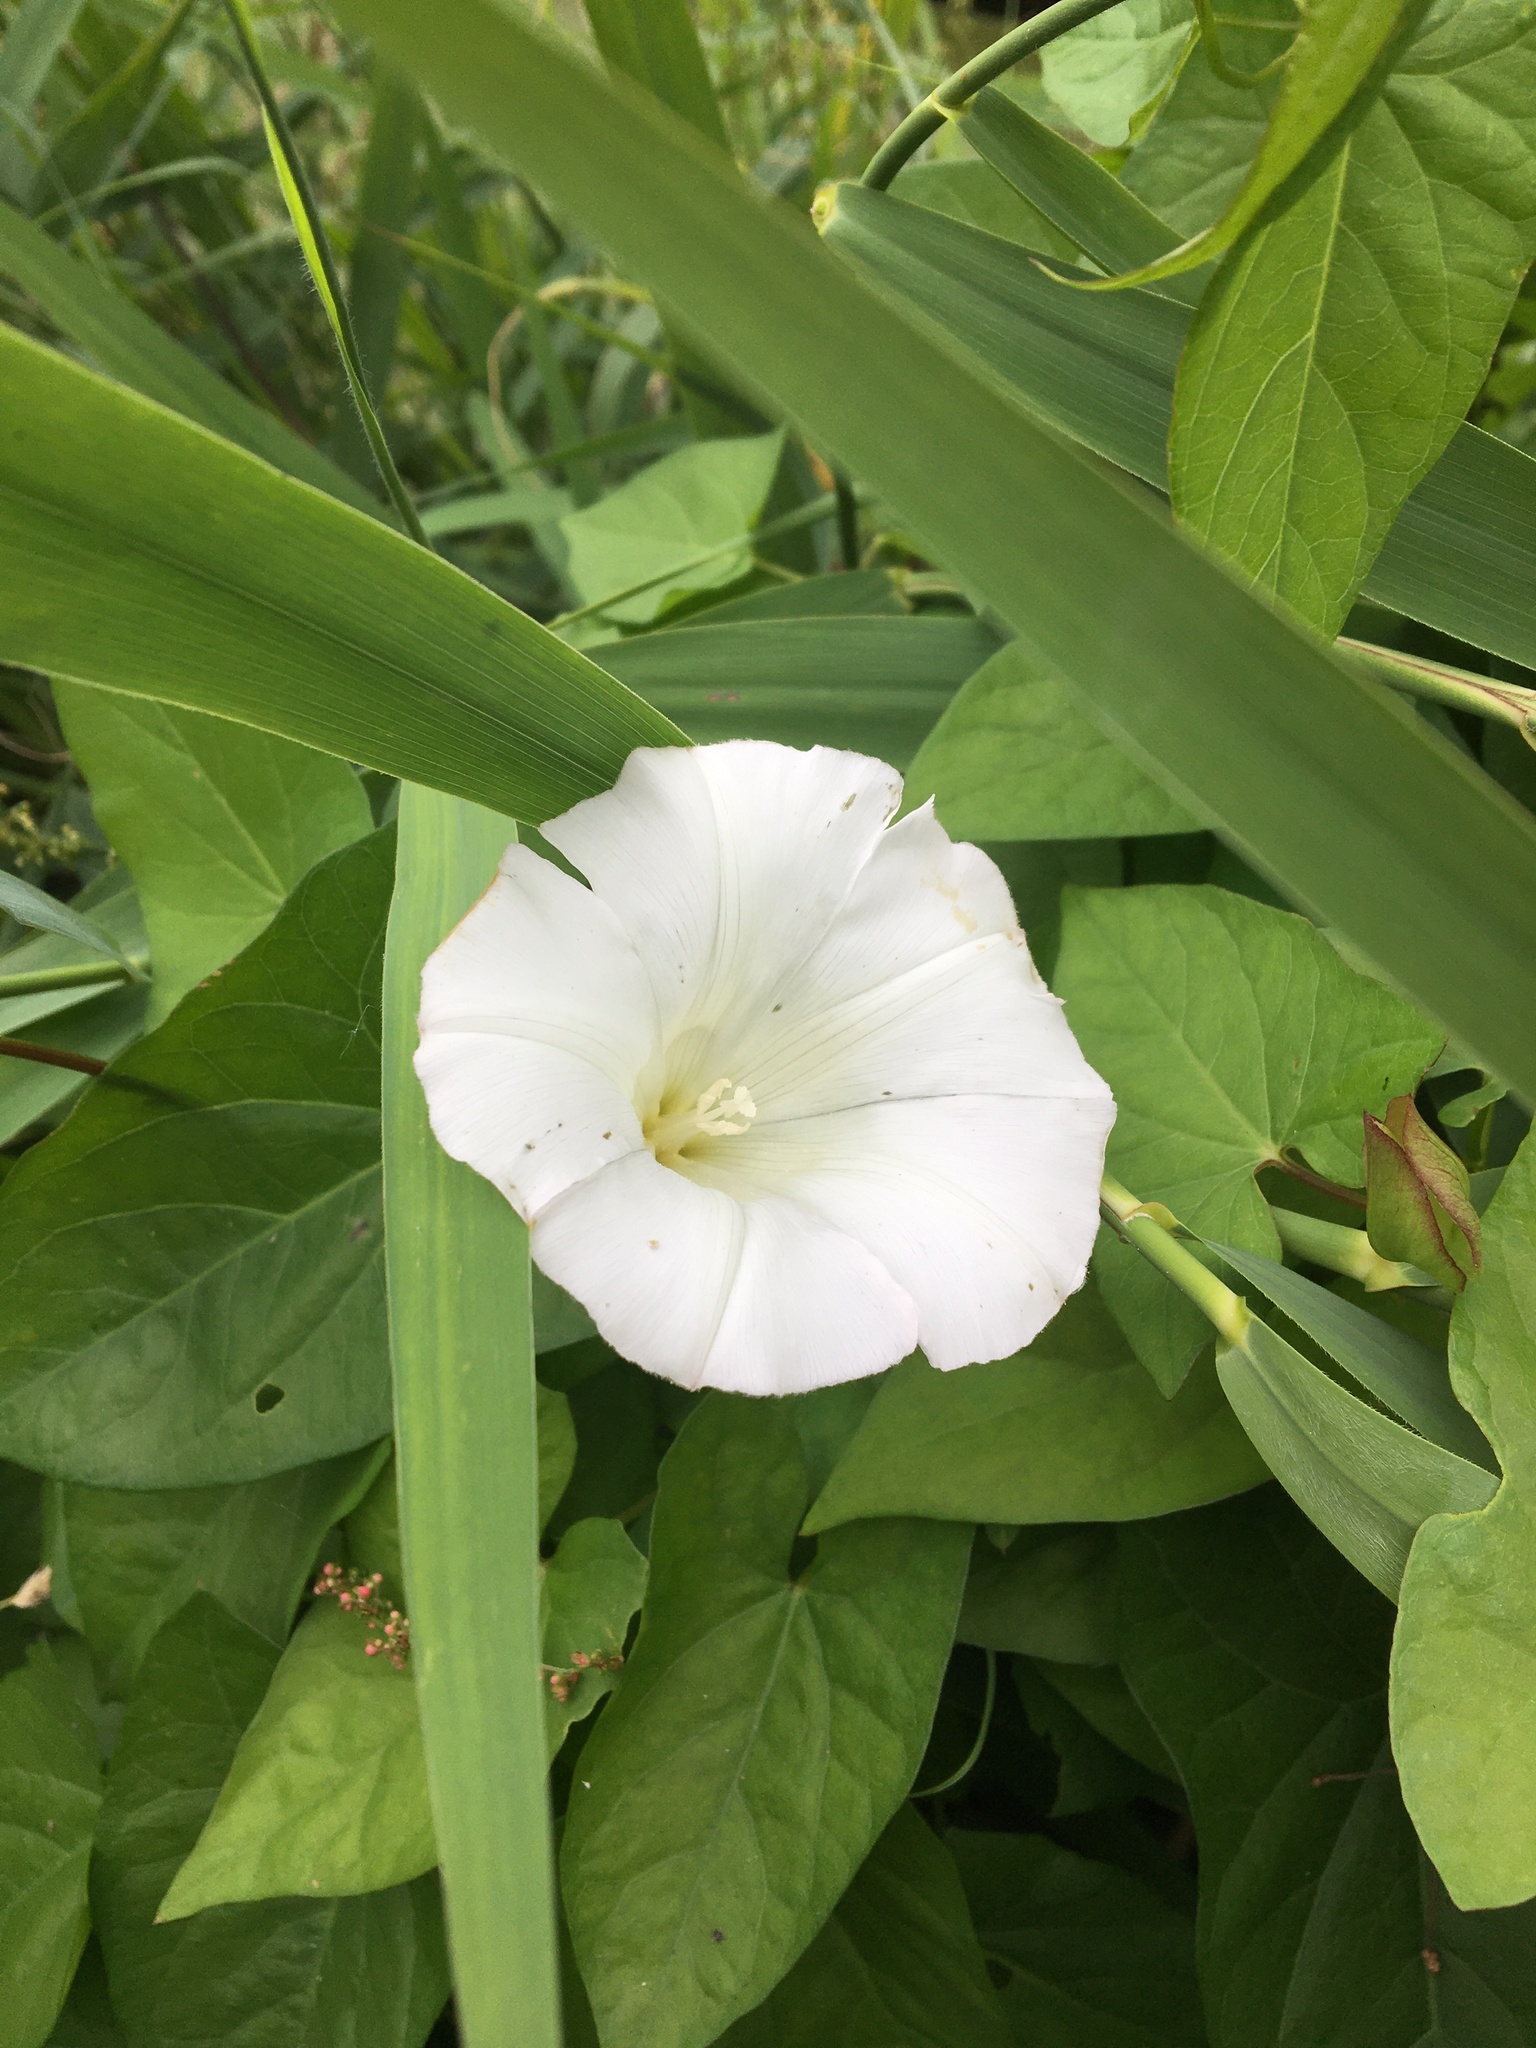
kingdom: Plantae
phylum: Tracheophyta
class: Magnoliopsida
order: Solanales
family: Convolvulaceae
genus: Calystegia
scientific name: Calystegia sepium
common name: Hedge bindweed
